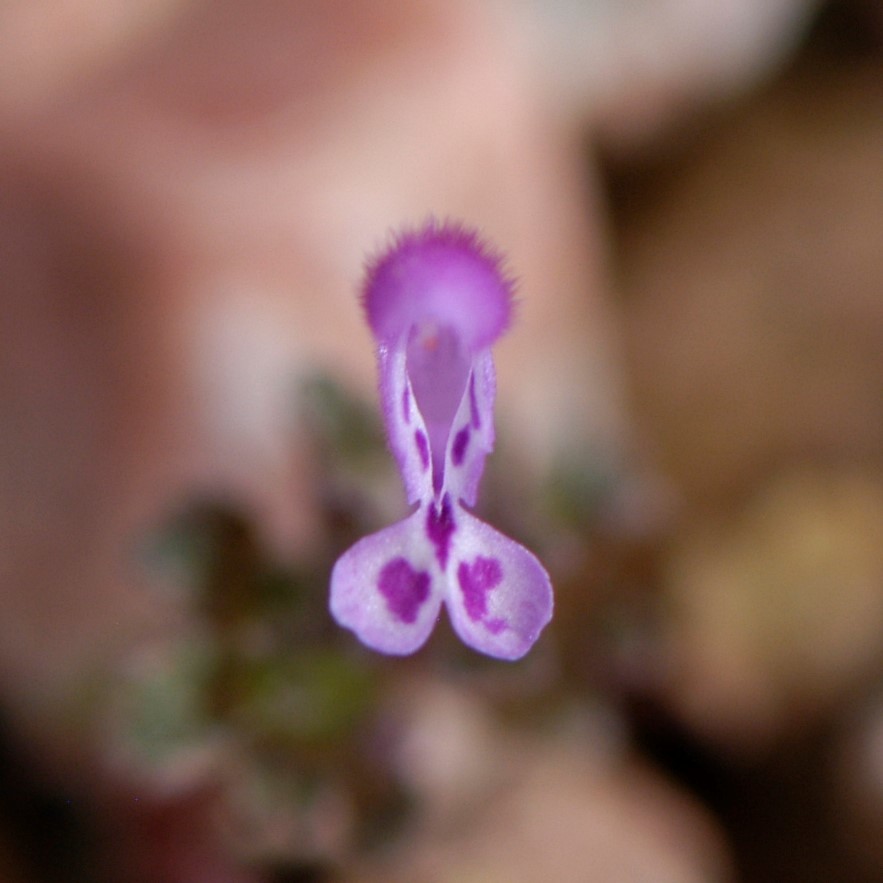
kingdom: Plantae
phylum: Tracheophyta
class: Magnoliopsida
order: Lamiales
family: Lamiaceae
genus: Lamium
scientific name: Lamium amplexicaule
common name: Henbit dead-nettle
